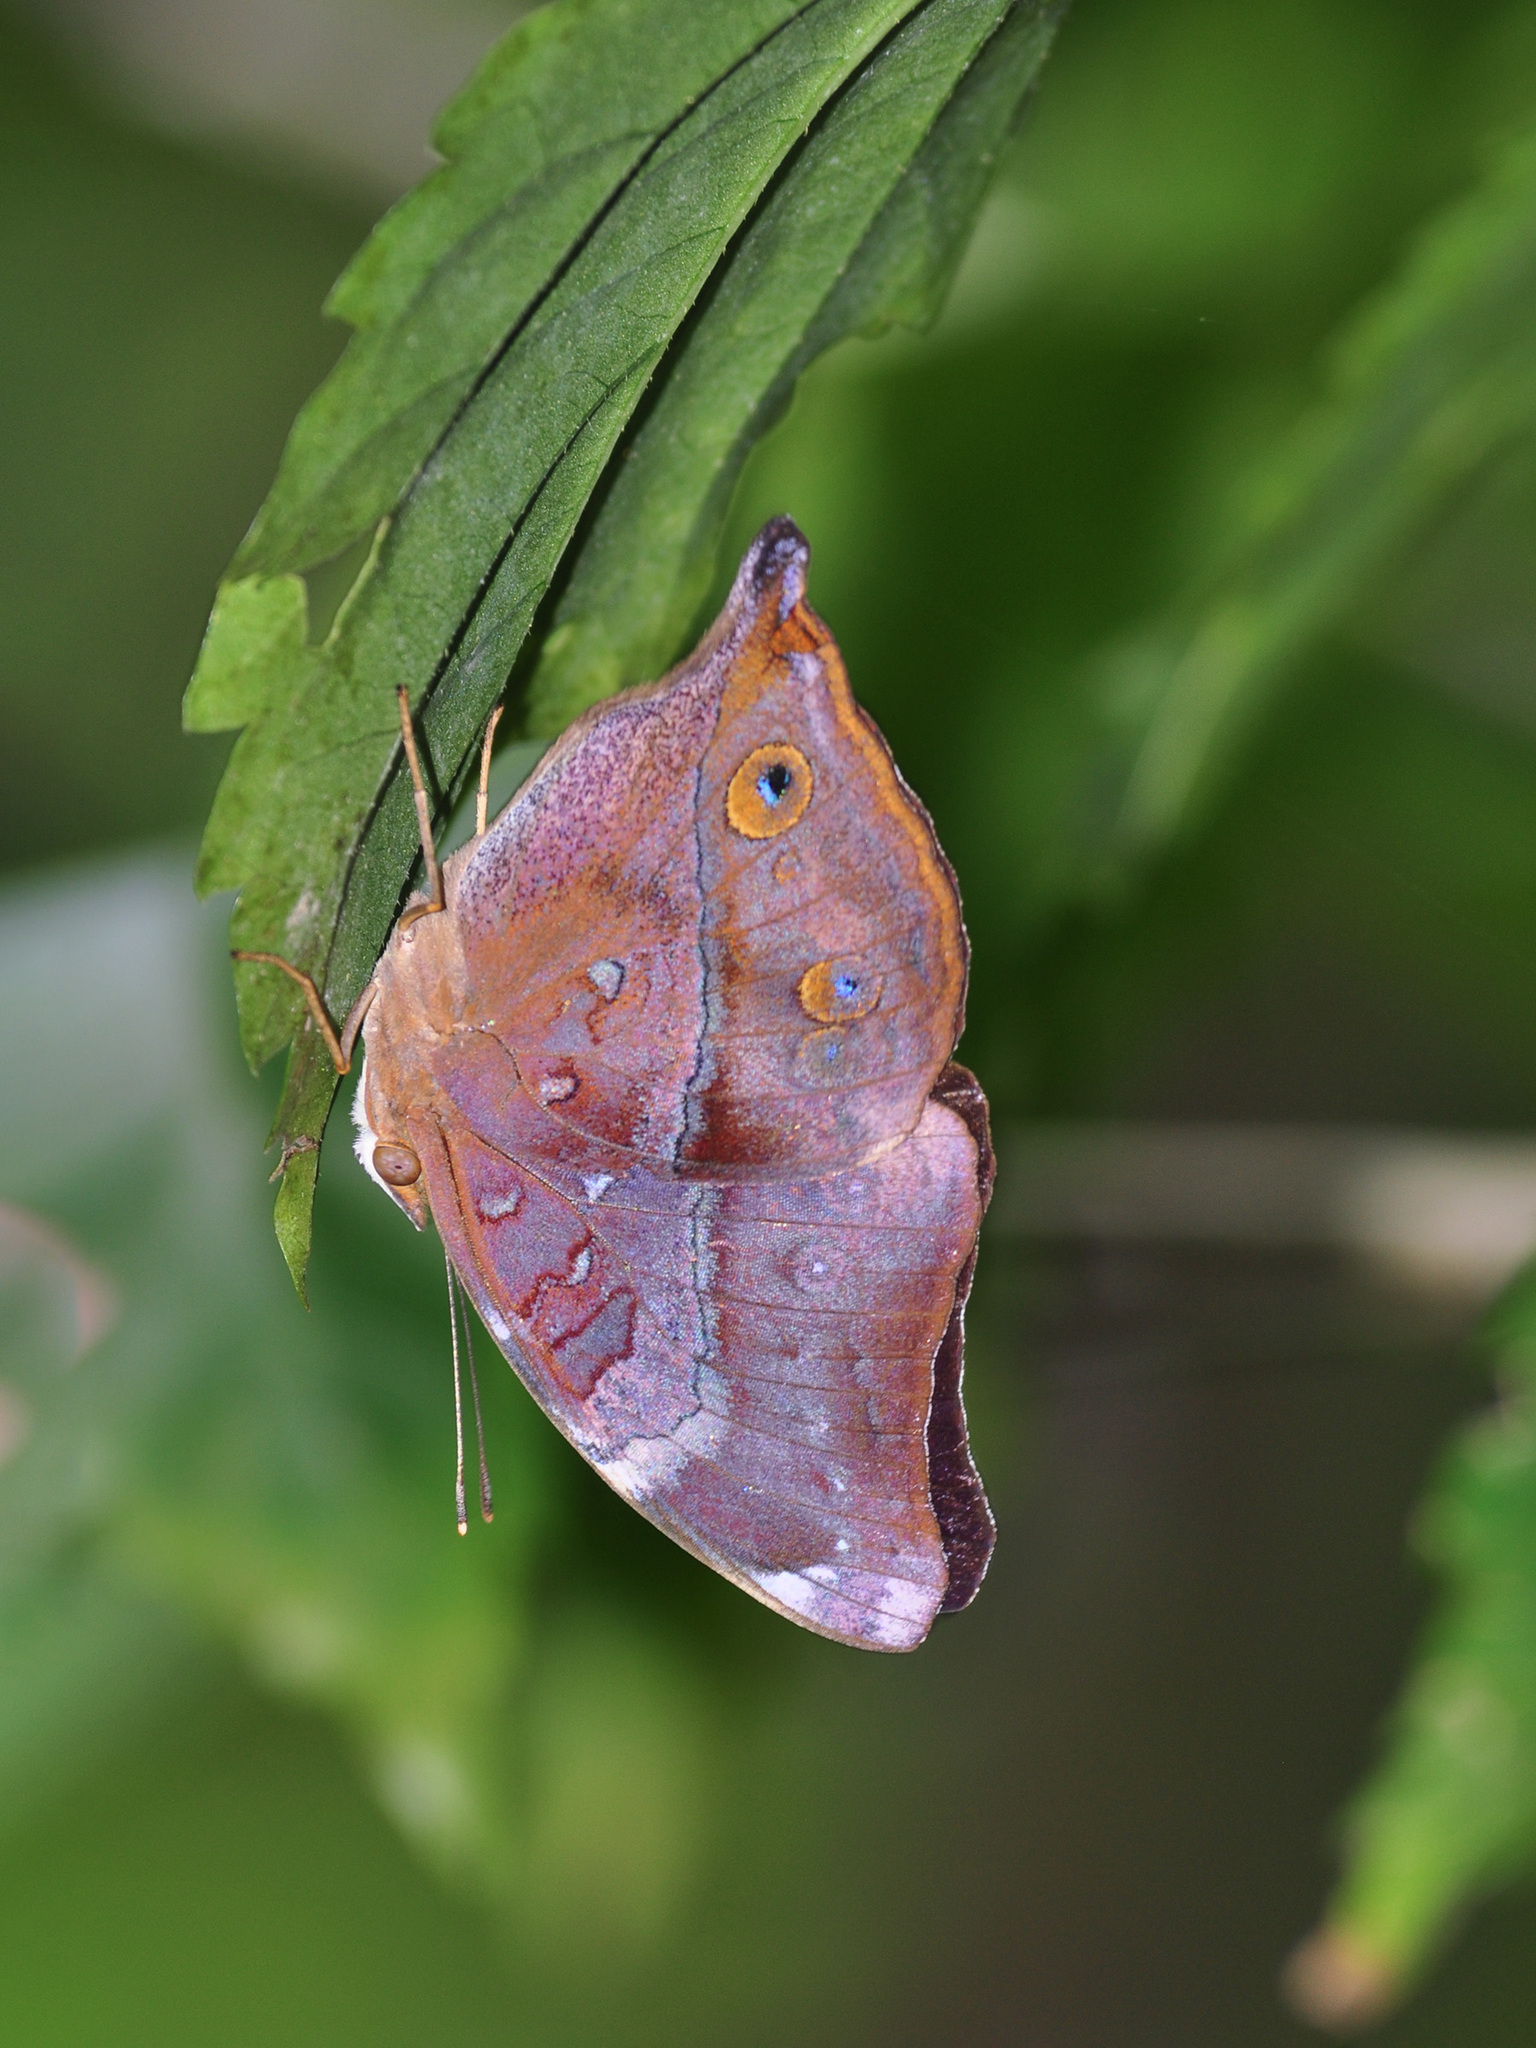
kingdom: Animalia
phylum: Arthropoda
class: Insecta
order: Lepidoptera
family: Nymphalidae
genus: Doleschallia
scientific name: Doleschallia bisaltide
